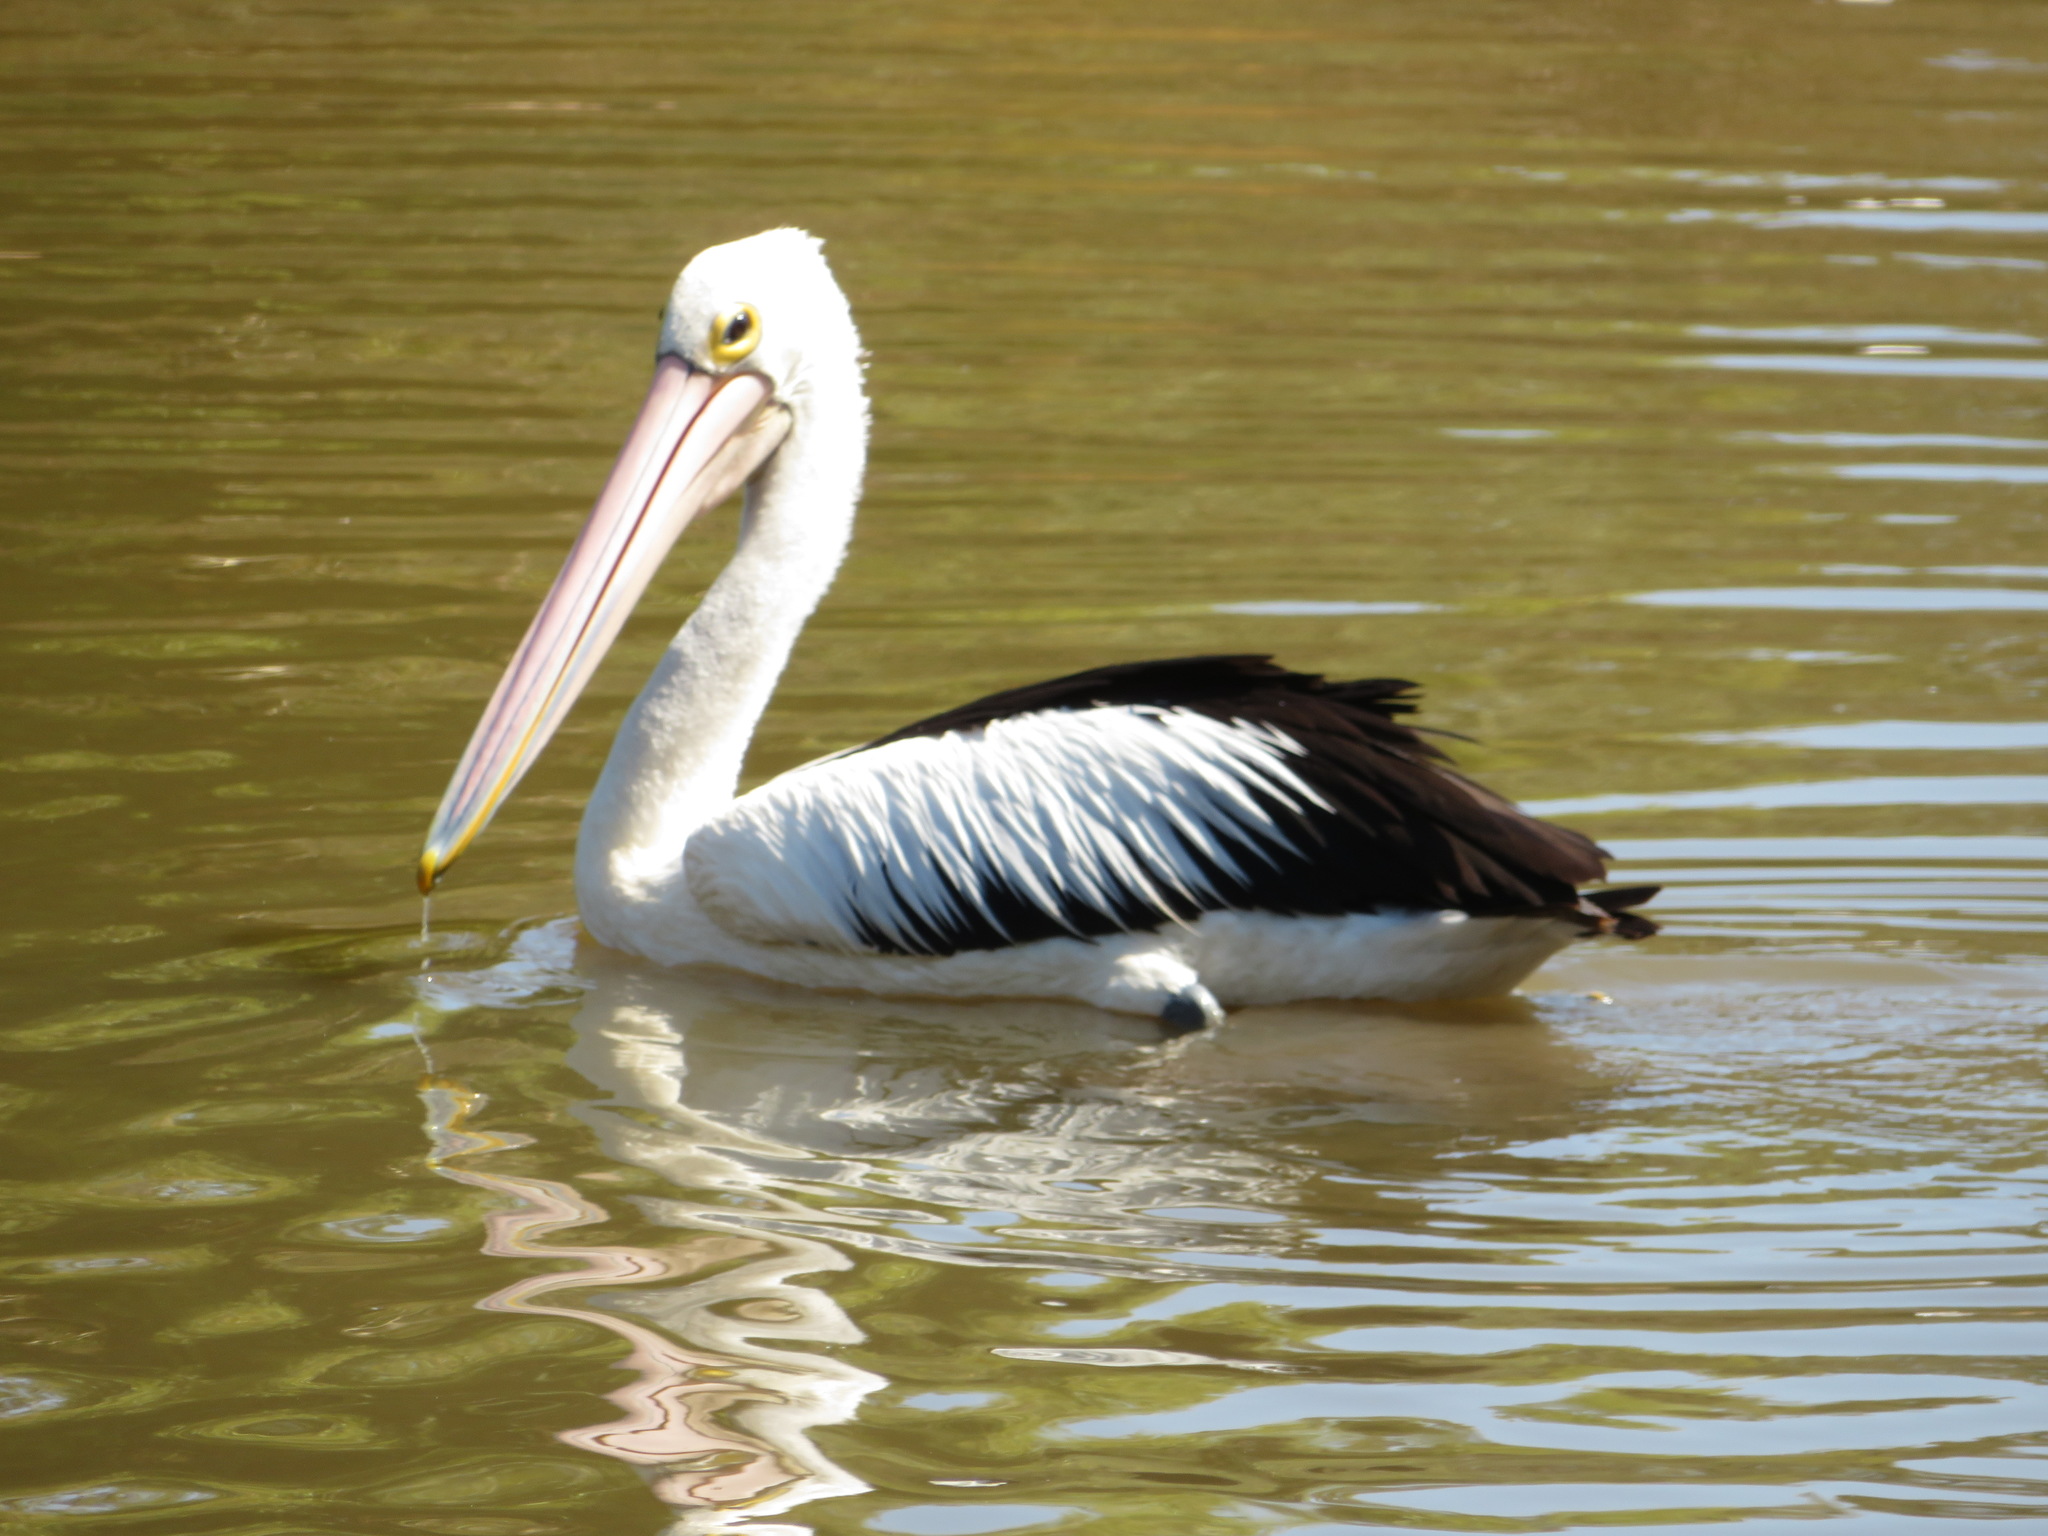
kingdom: Animalia
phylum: Chordata
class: Aves
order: Pelecaniformes
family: Pelecanidae
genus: Pelecanus
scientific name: Pelecanus conspicillatus
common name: Australian pelican
